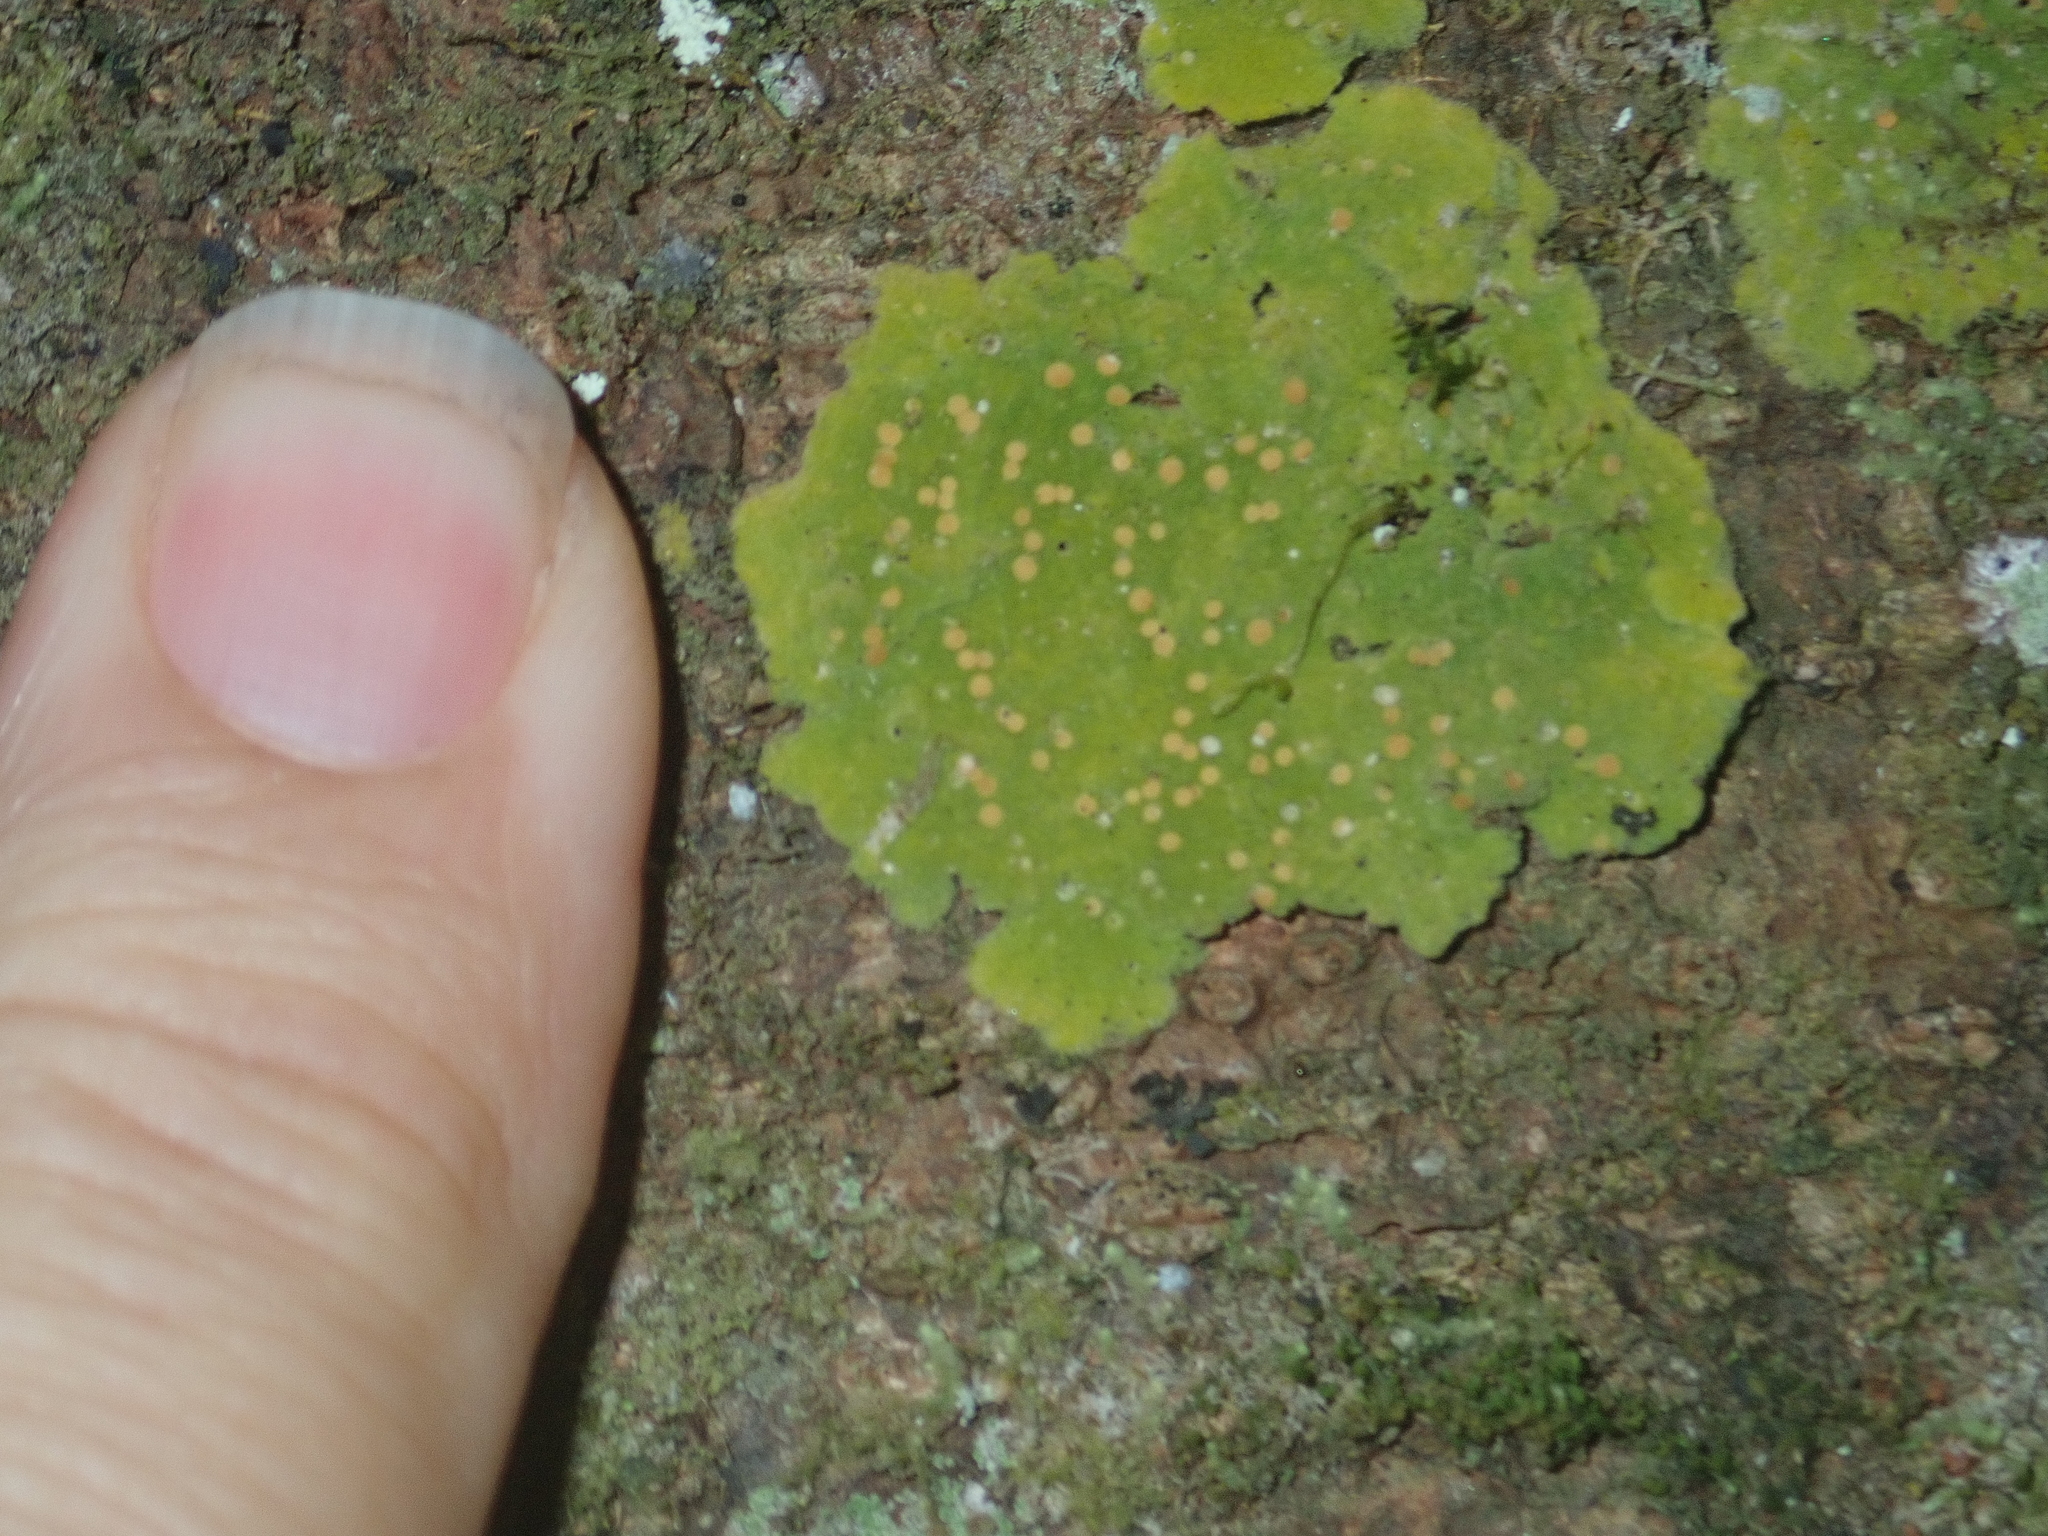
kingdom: Fungi
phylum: Ascomycota
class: Lecanoromycetes
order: Ostropales
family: Coenogoniaceae
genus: Coenogonium
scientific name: Coenogonium implexum
